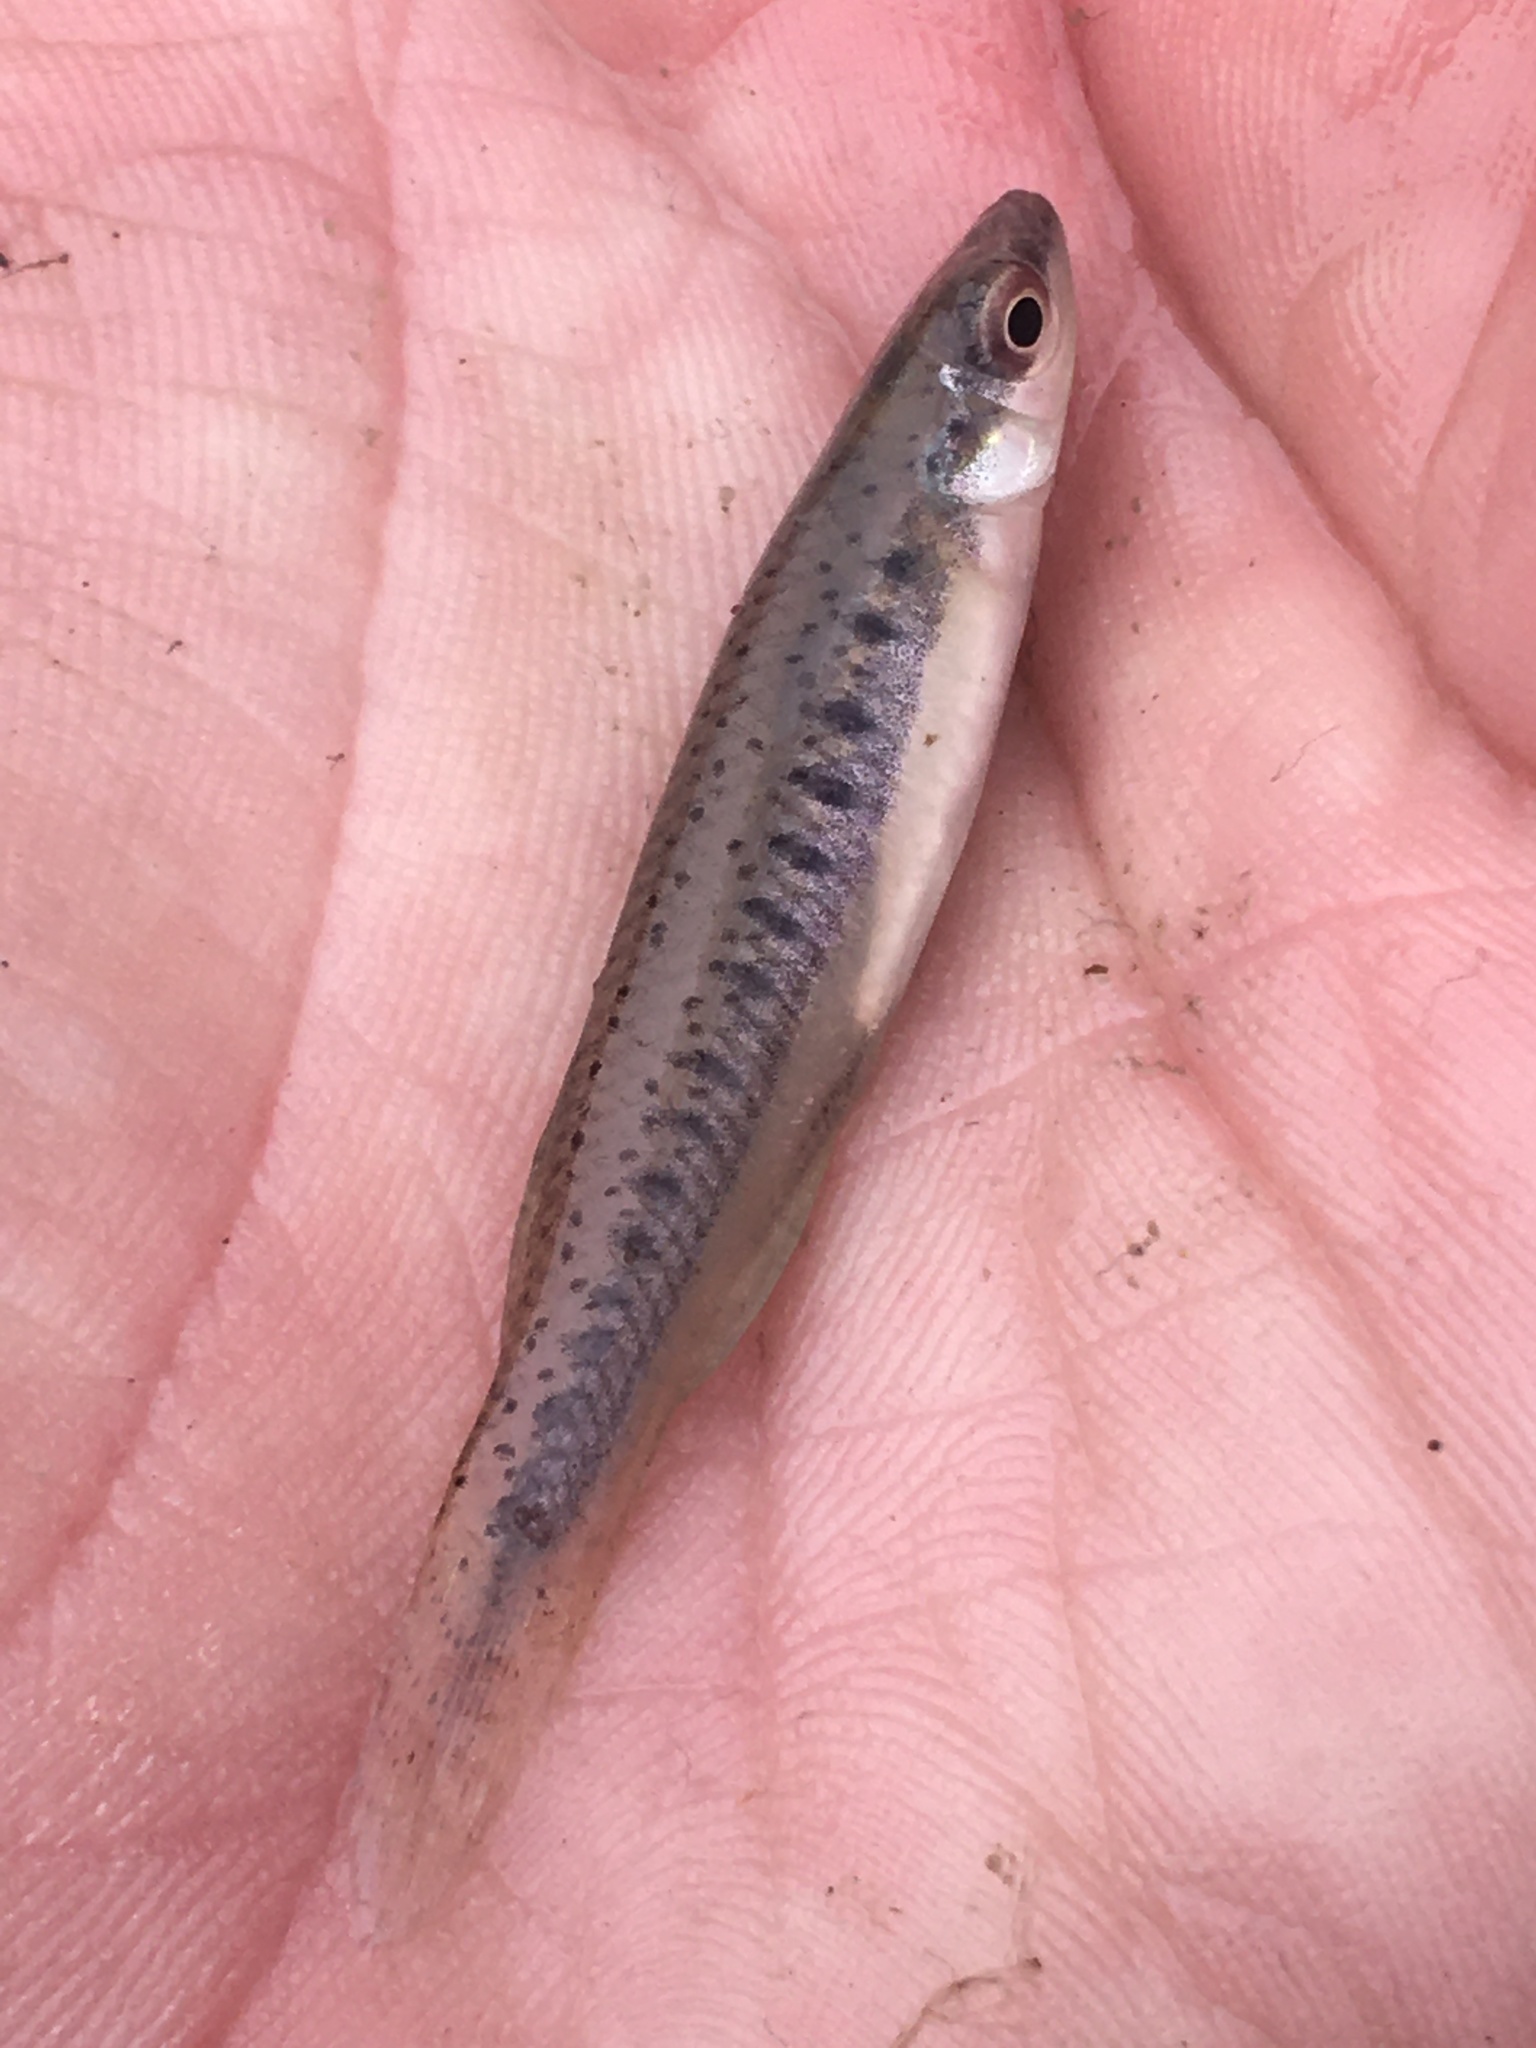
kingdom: Animalia
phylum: Chordata
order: Cyprinodontiformes
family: Fundulidae
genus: Fundulus
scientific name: Fundulus olivaceus
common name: Blackspotted topminnow
